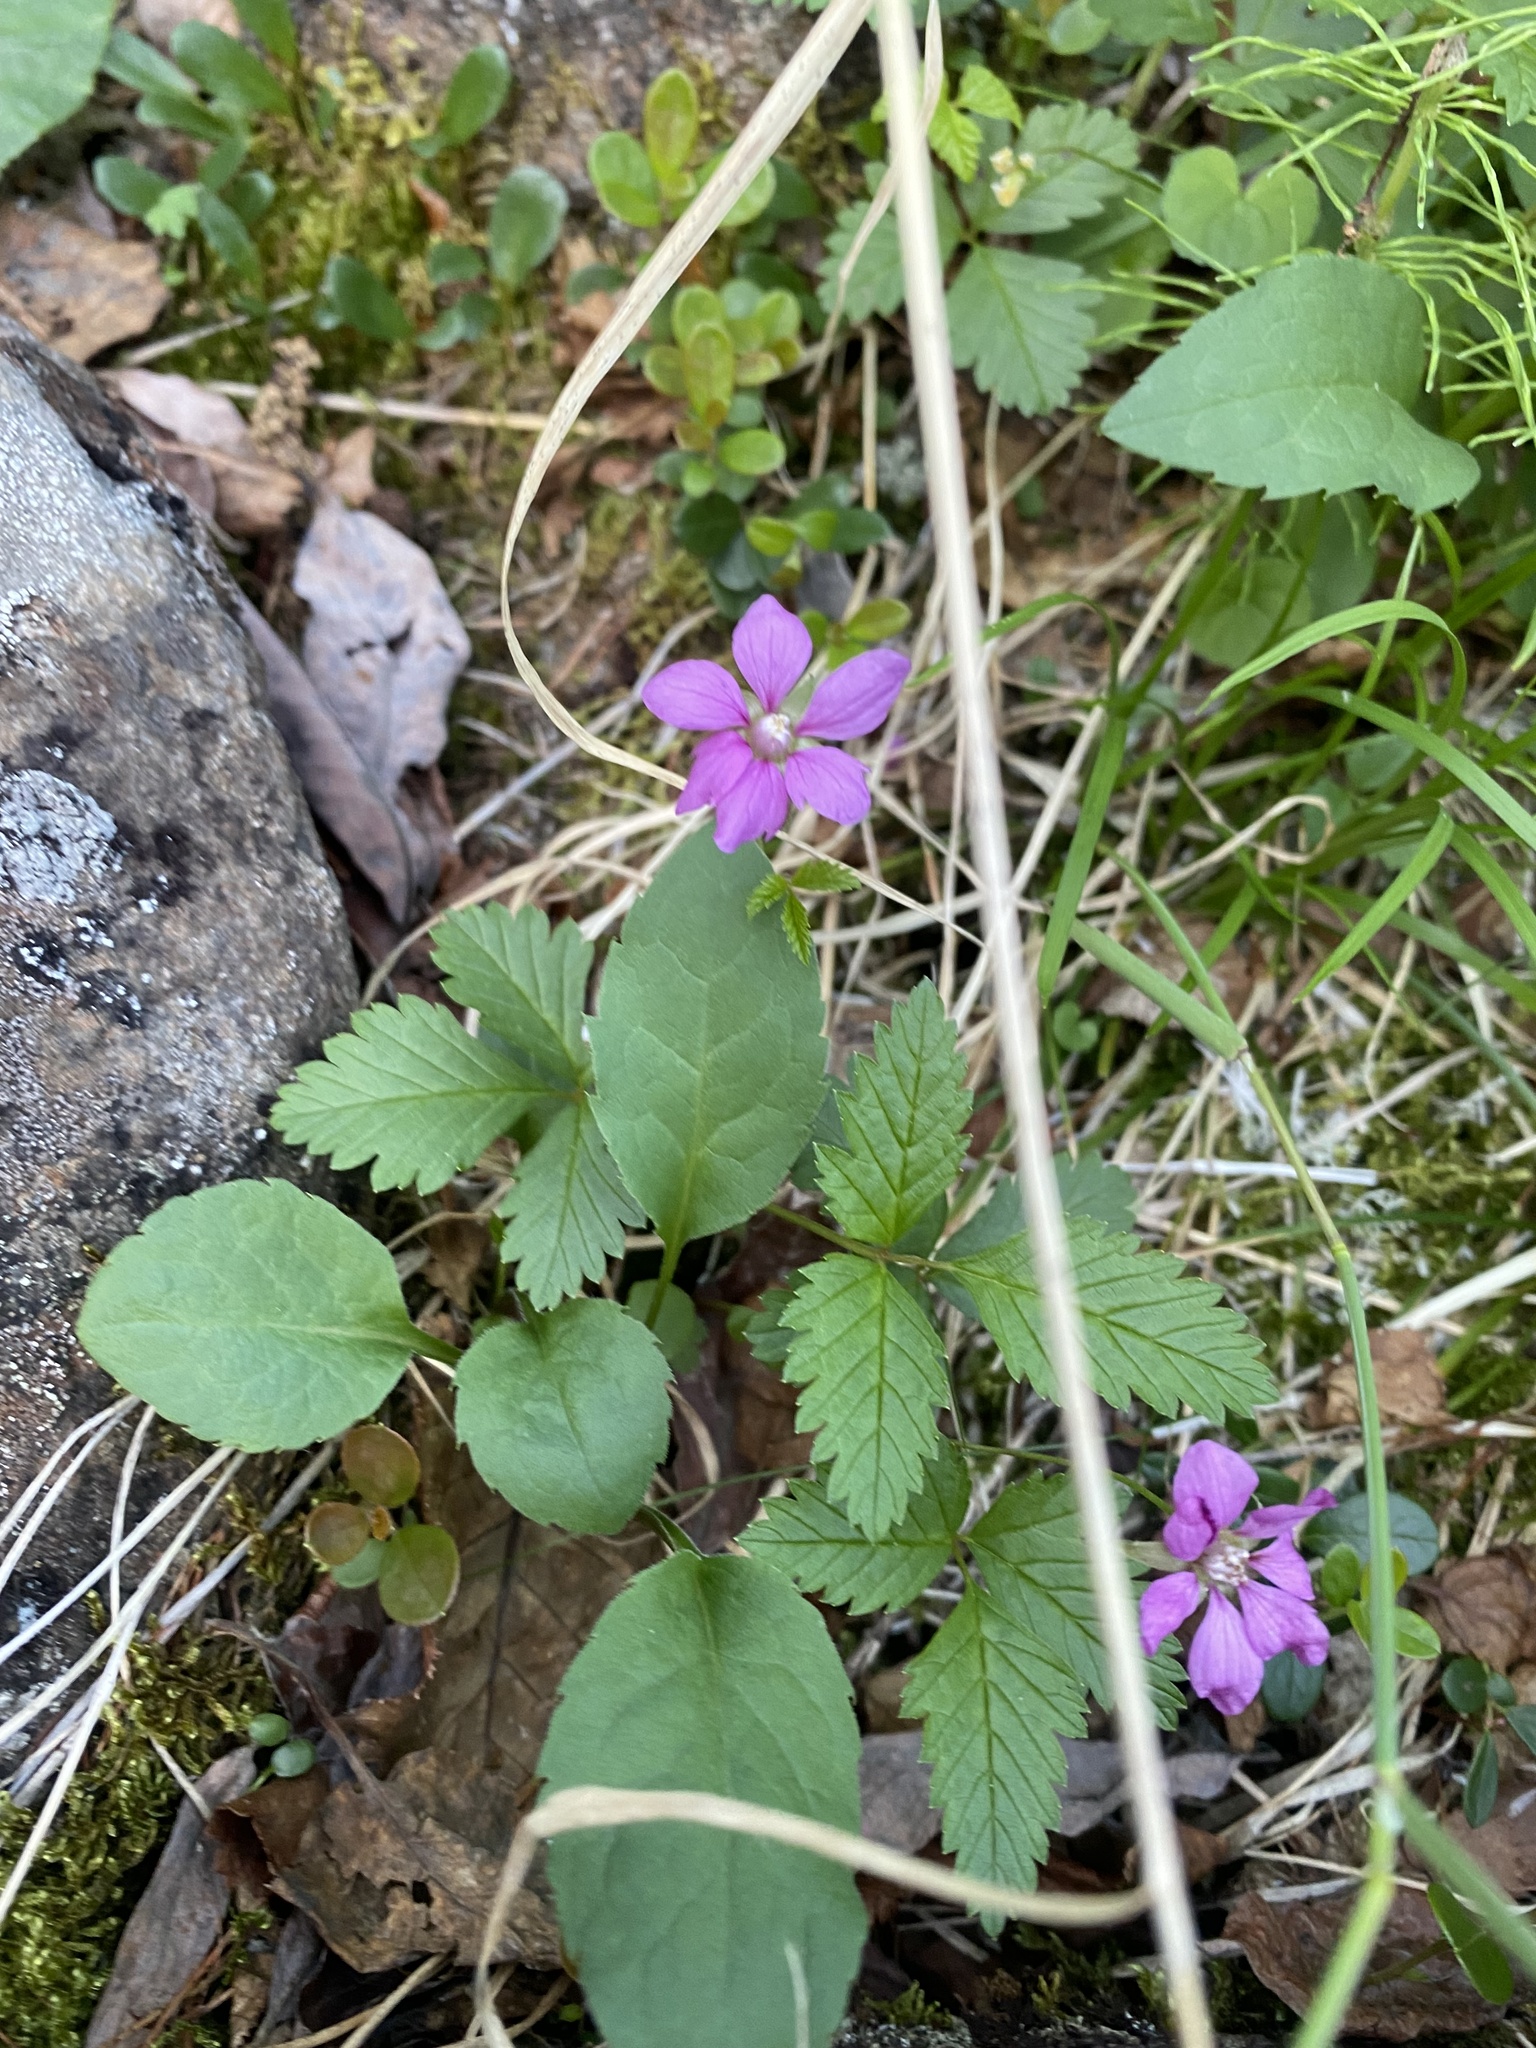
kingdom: Plantae
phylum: Tracheophyta
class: Magnoliopsida
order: Rosales
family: Rosaceae
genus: Rubus
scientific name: Rubus arcticus
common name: Arctic bramble
